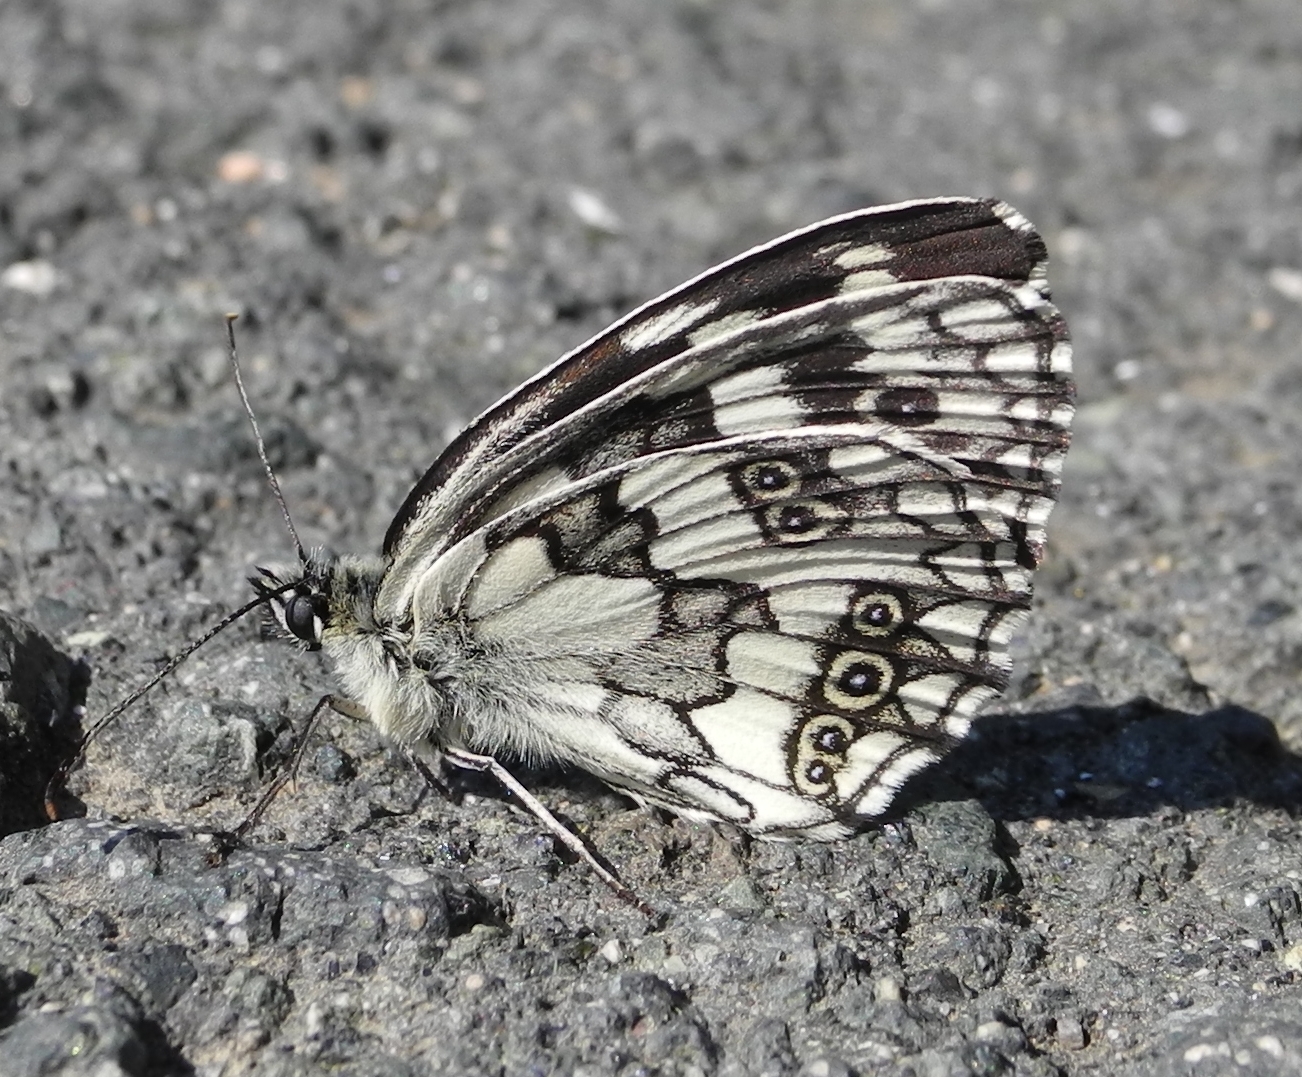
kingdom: Animalia
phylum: Arthropoda
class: Insecta
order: Lepidoptera
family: Nymphalidae
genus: Melanargia
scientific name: Melanargia galathea
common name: Marbled white
